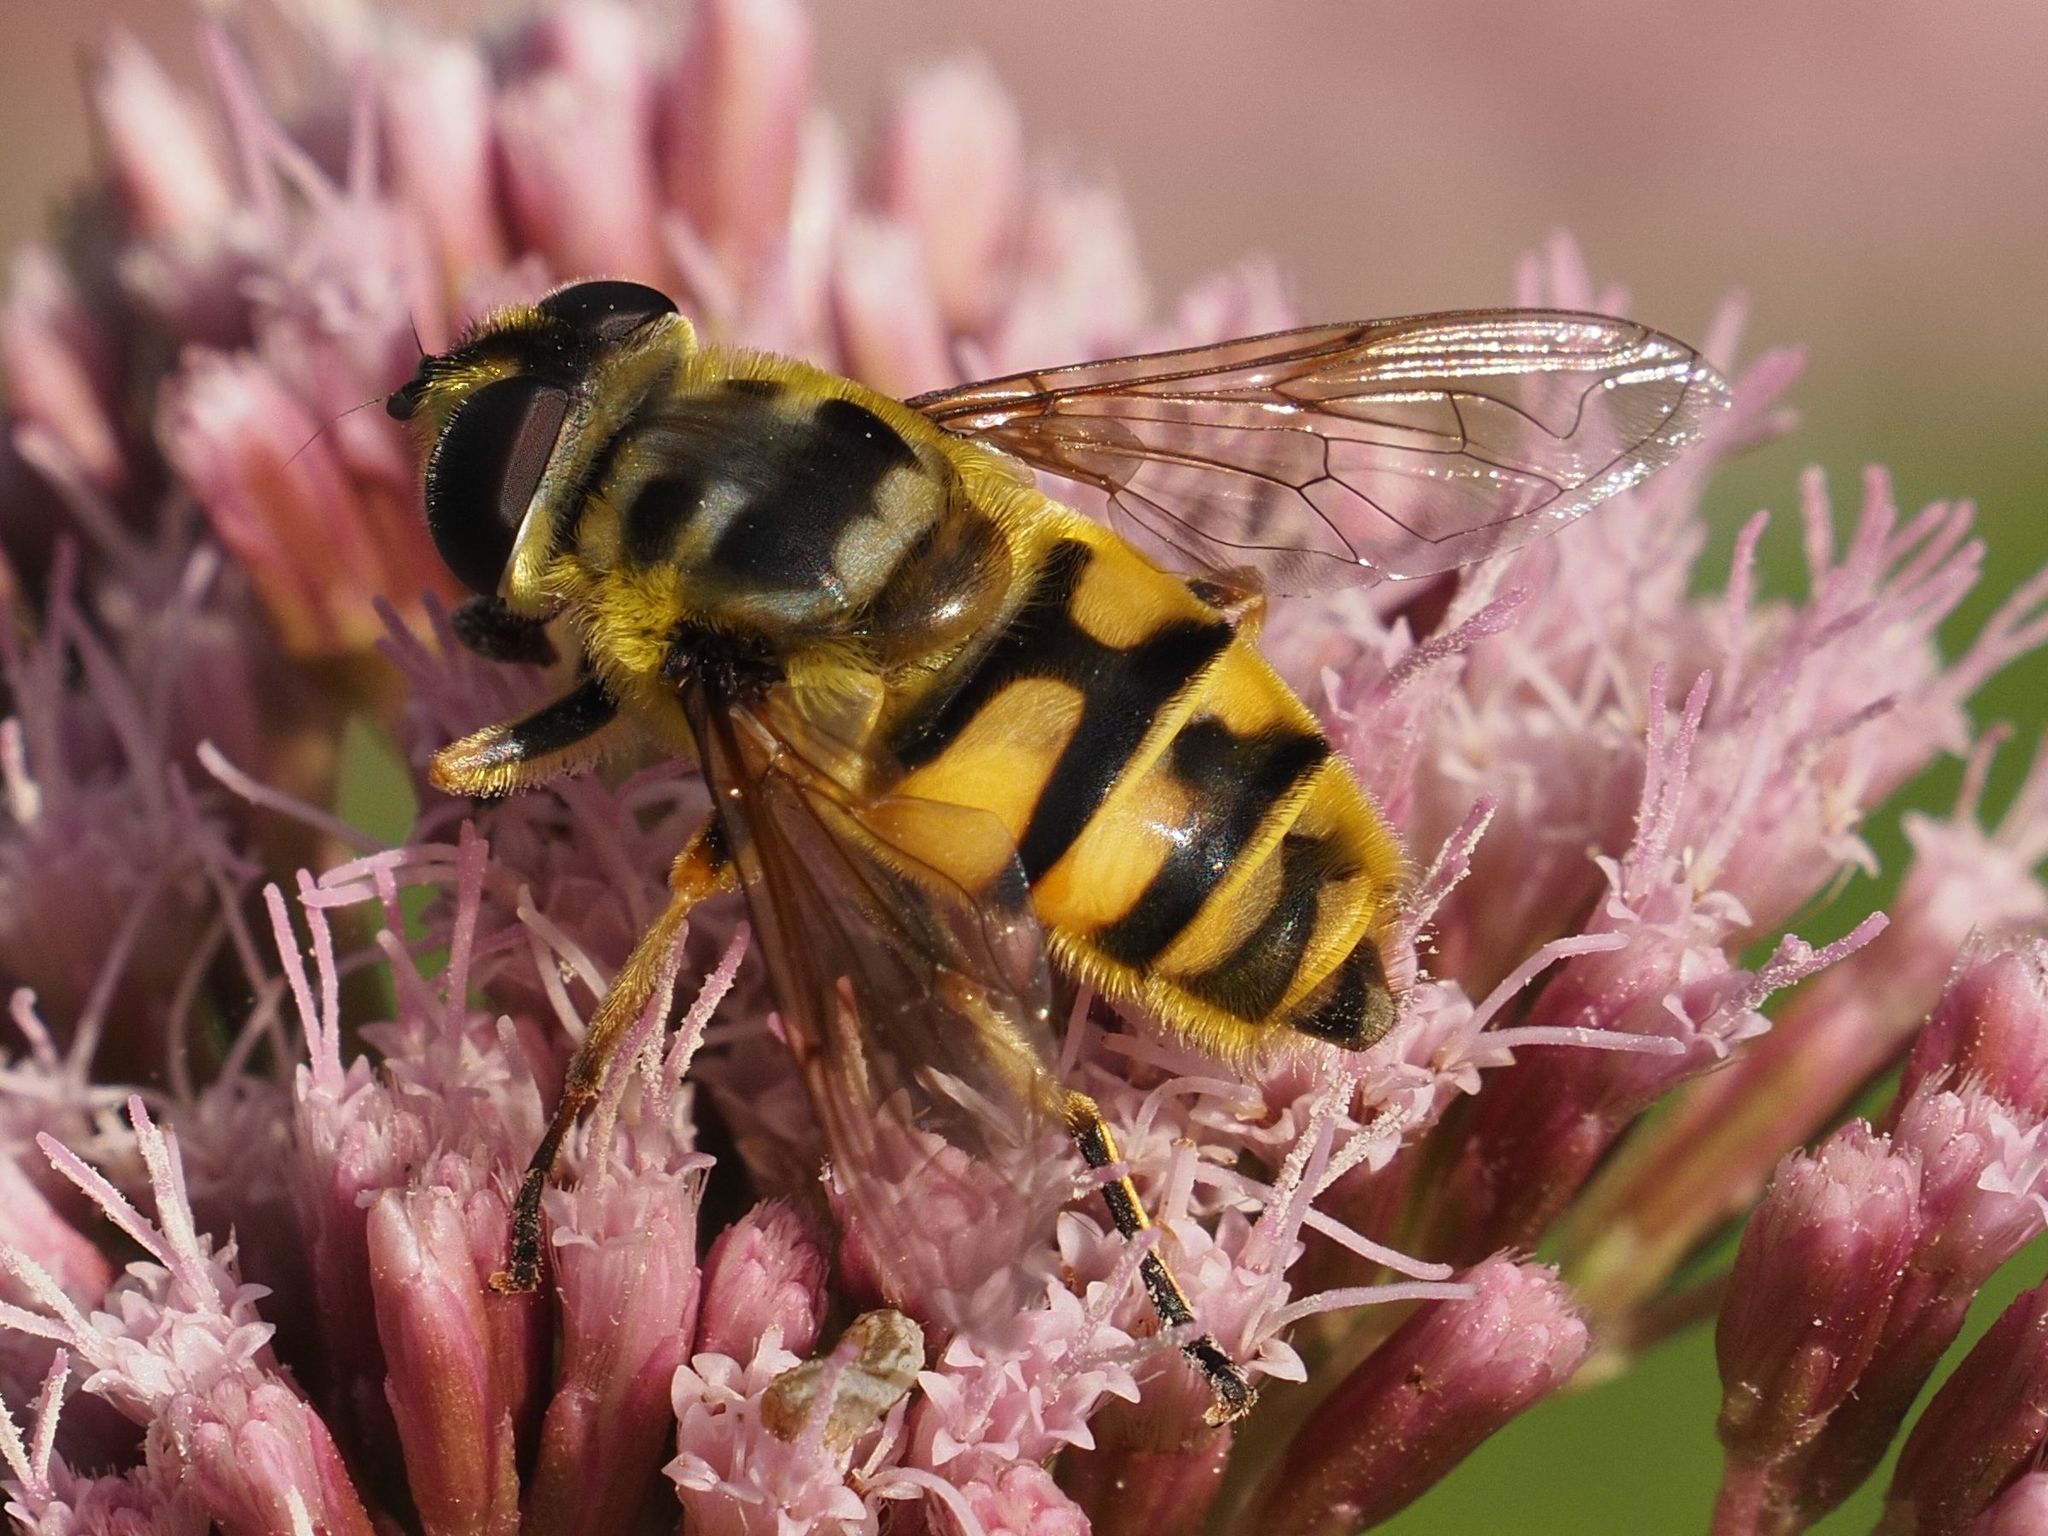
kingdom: Animalia
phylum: Arthropoda
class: Insecta
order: Diptera
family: Syrphidae
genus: Myathropa
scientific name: Myathropa florea
